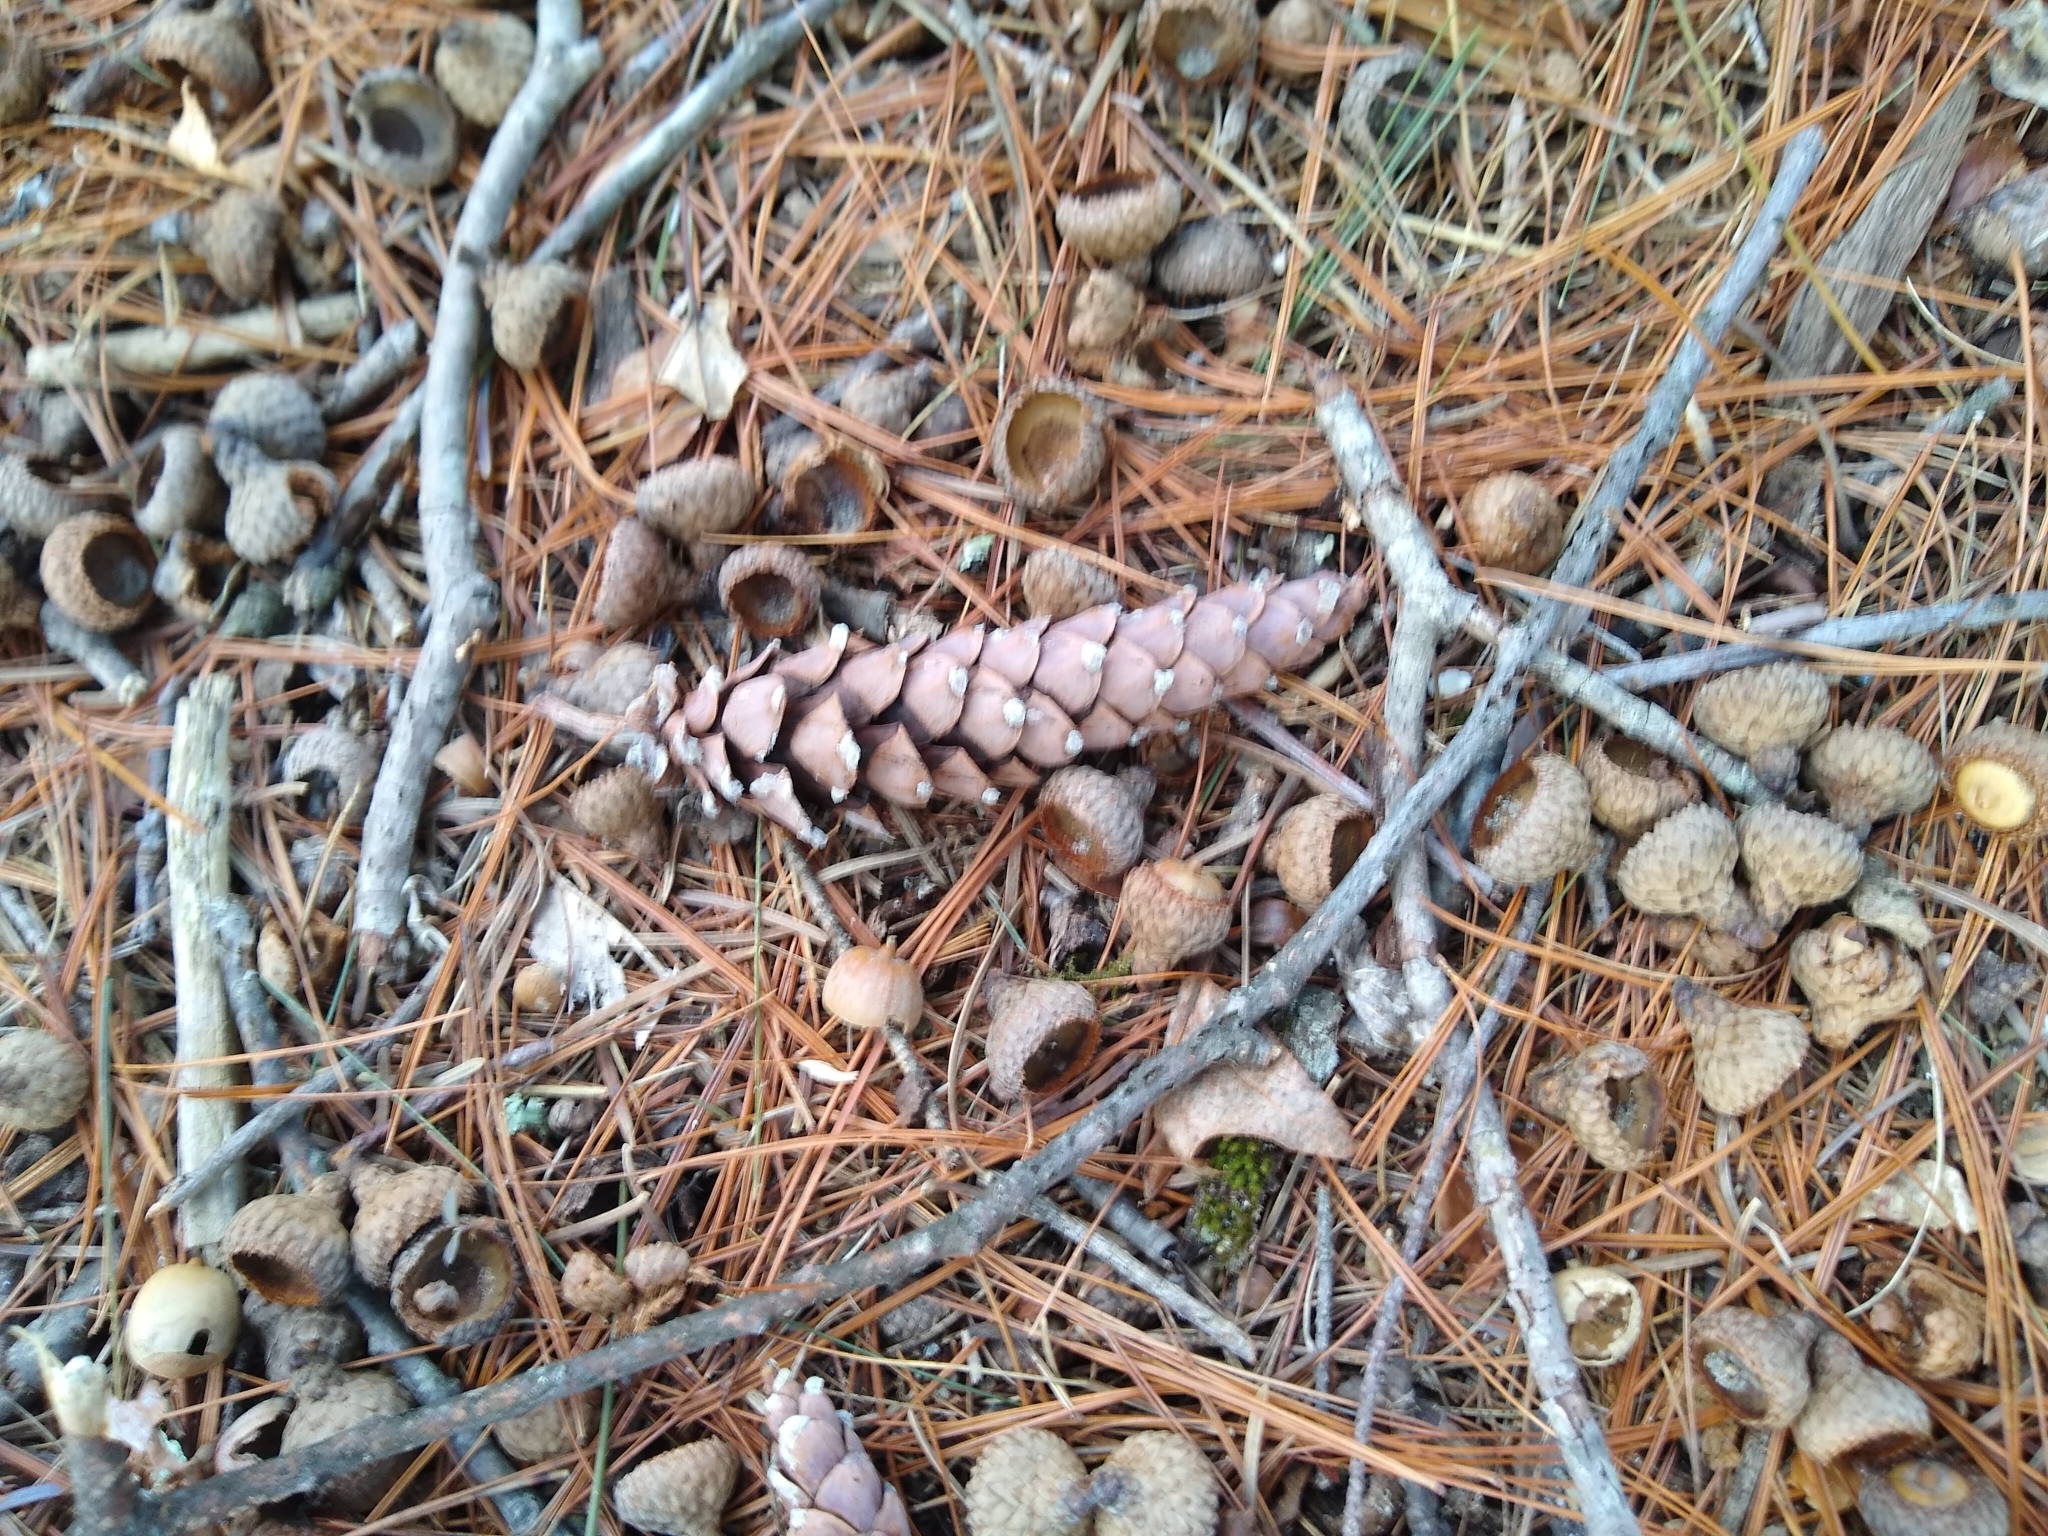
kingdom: Plantae
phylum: Tracheophyta
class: Pinopsida
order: Pinales
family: Pinaceae
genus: Pinus
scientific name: Pinus strobus
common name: Weymouth pine
